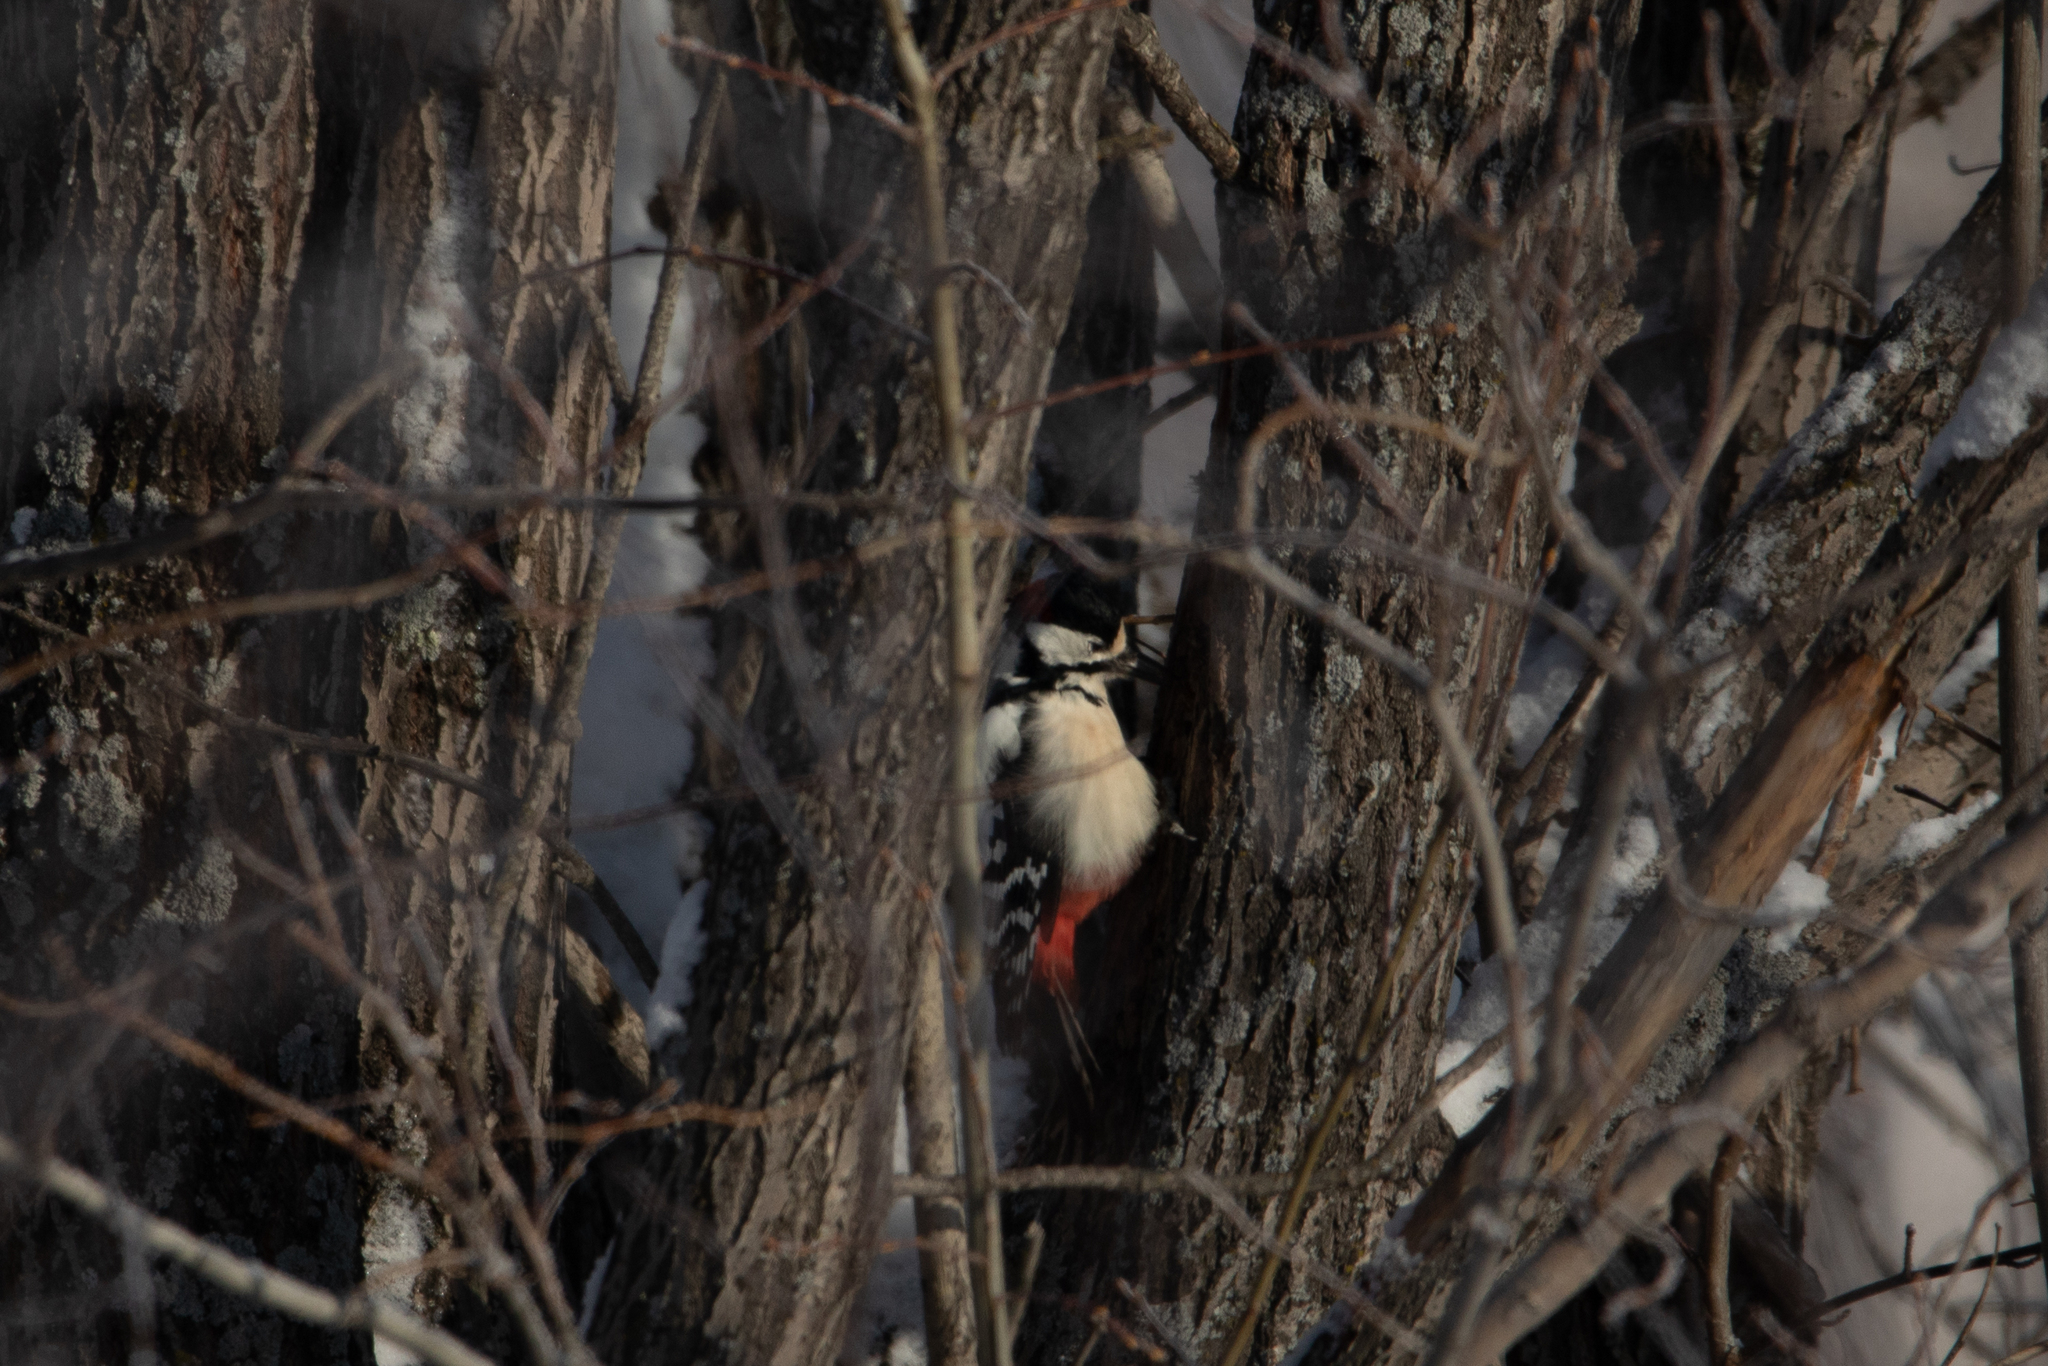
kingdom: Animalia
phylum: Chordata
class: Aves
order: Piciformes
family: Picidae
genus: Dendrocopos
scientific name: Dendrocopos major
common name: Great spotted woodpecker
